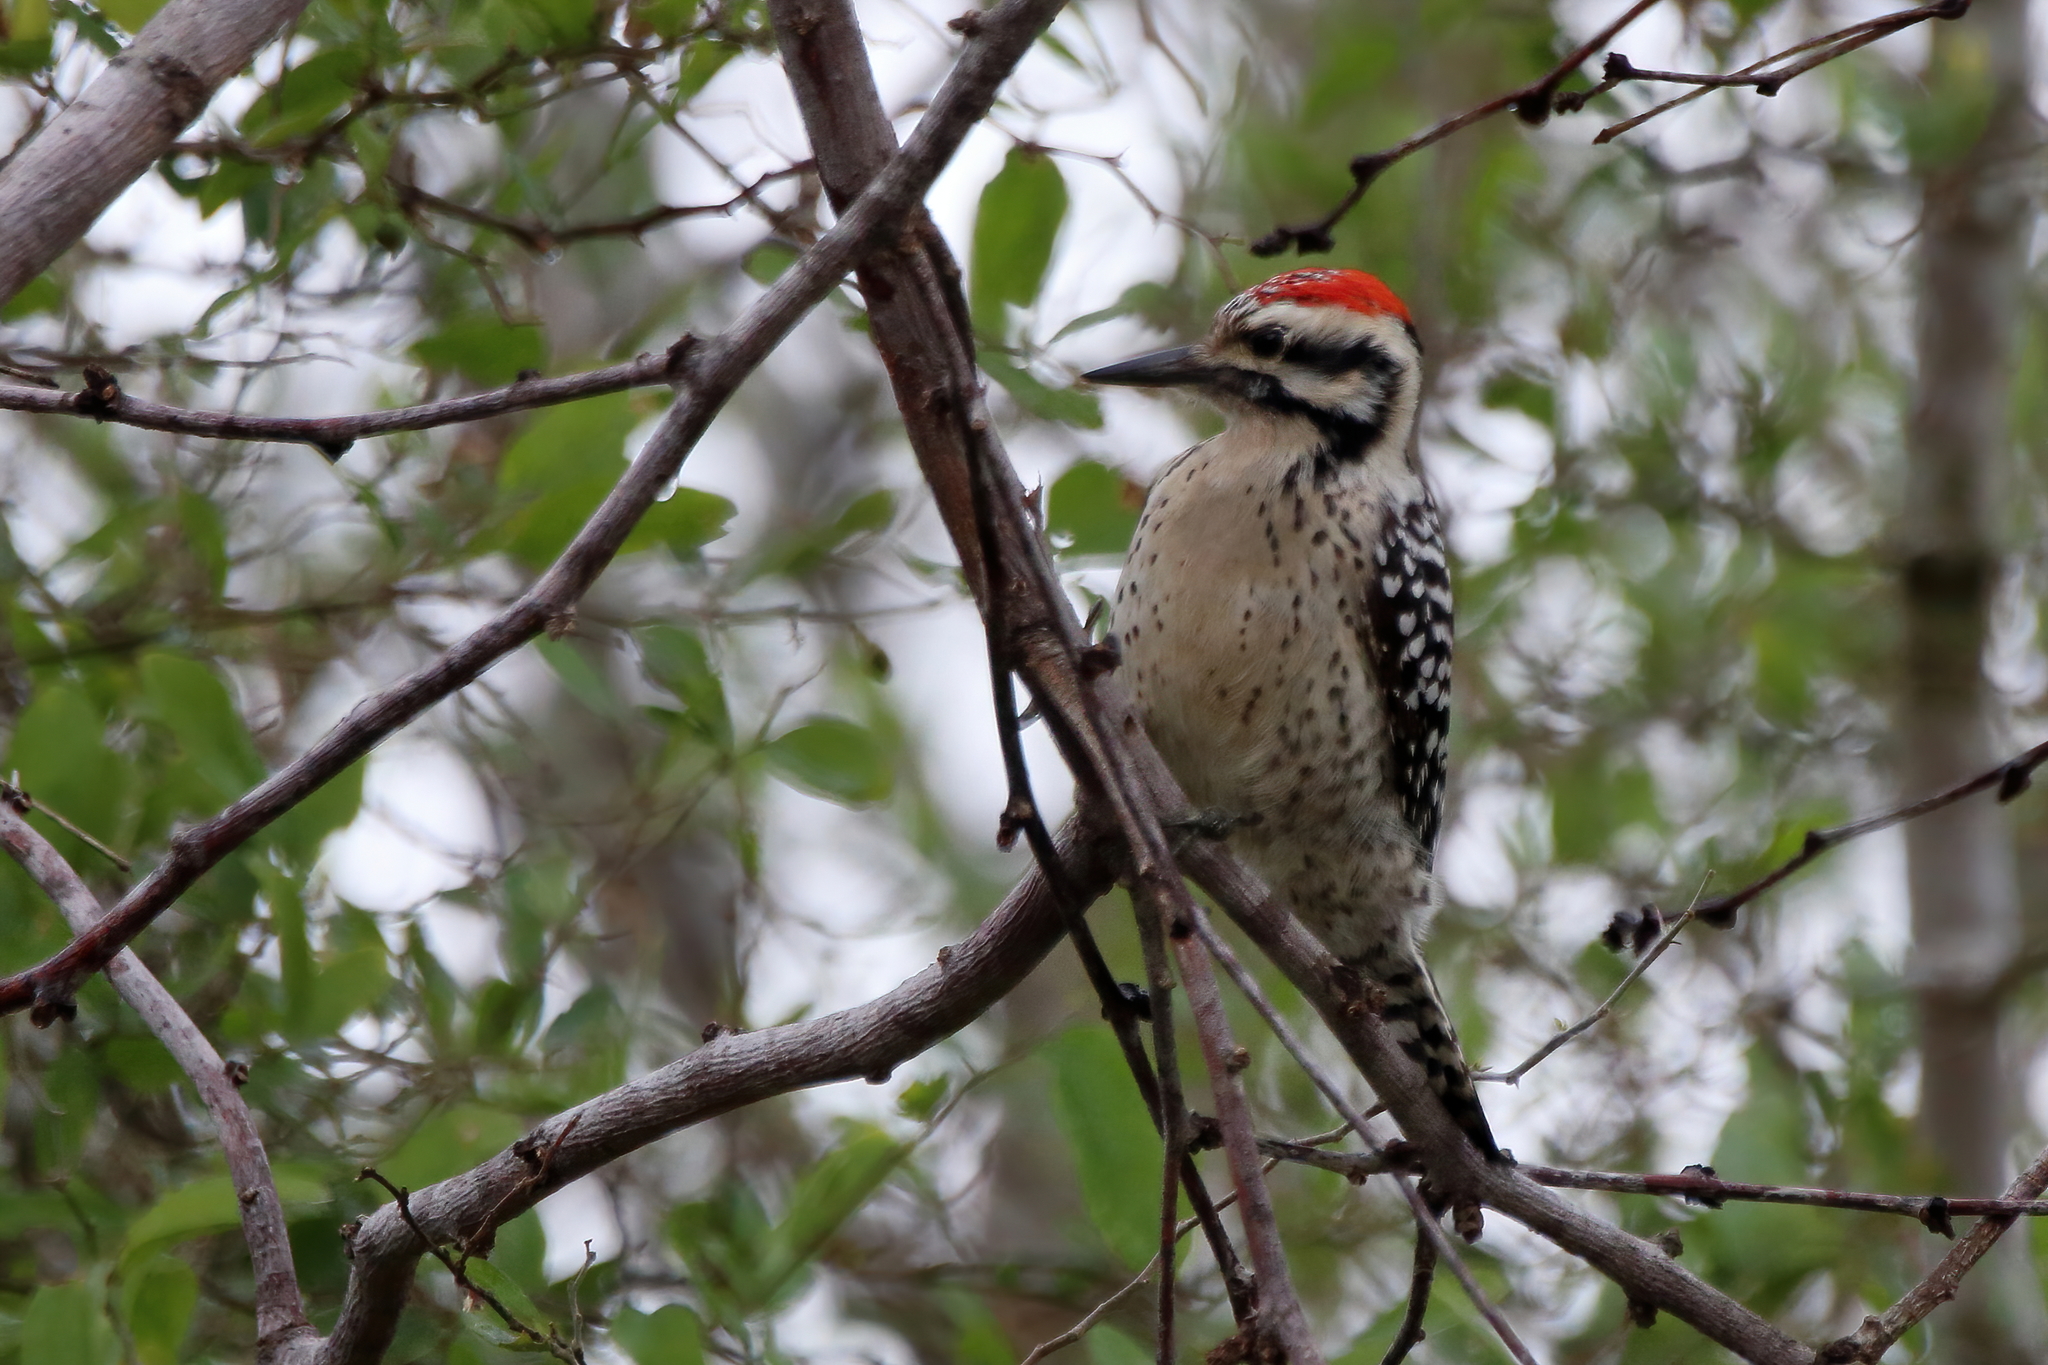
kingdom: Animalia
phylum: Chordata
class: Aves
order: Piciformes
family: Picidae
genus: Dryobates
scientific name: Dryobates scalaris
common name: Ladder-backed woodpecker
